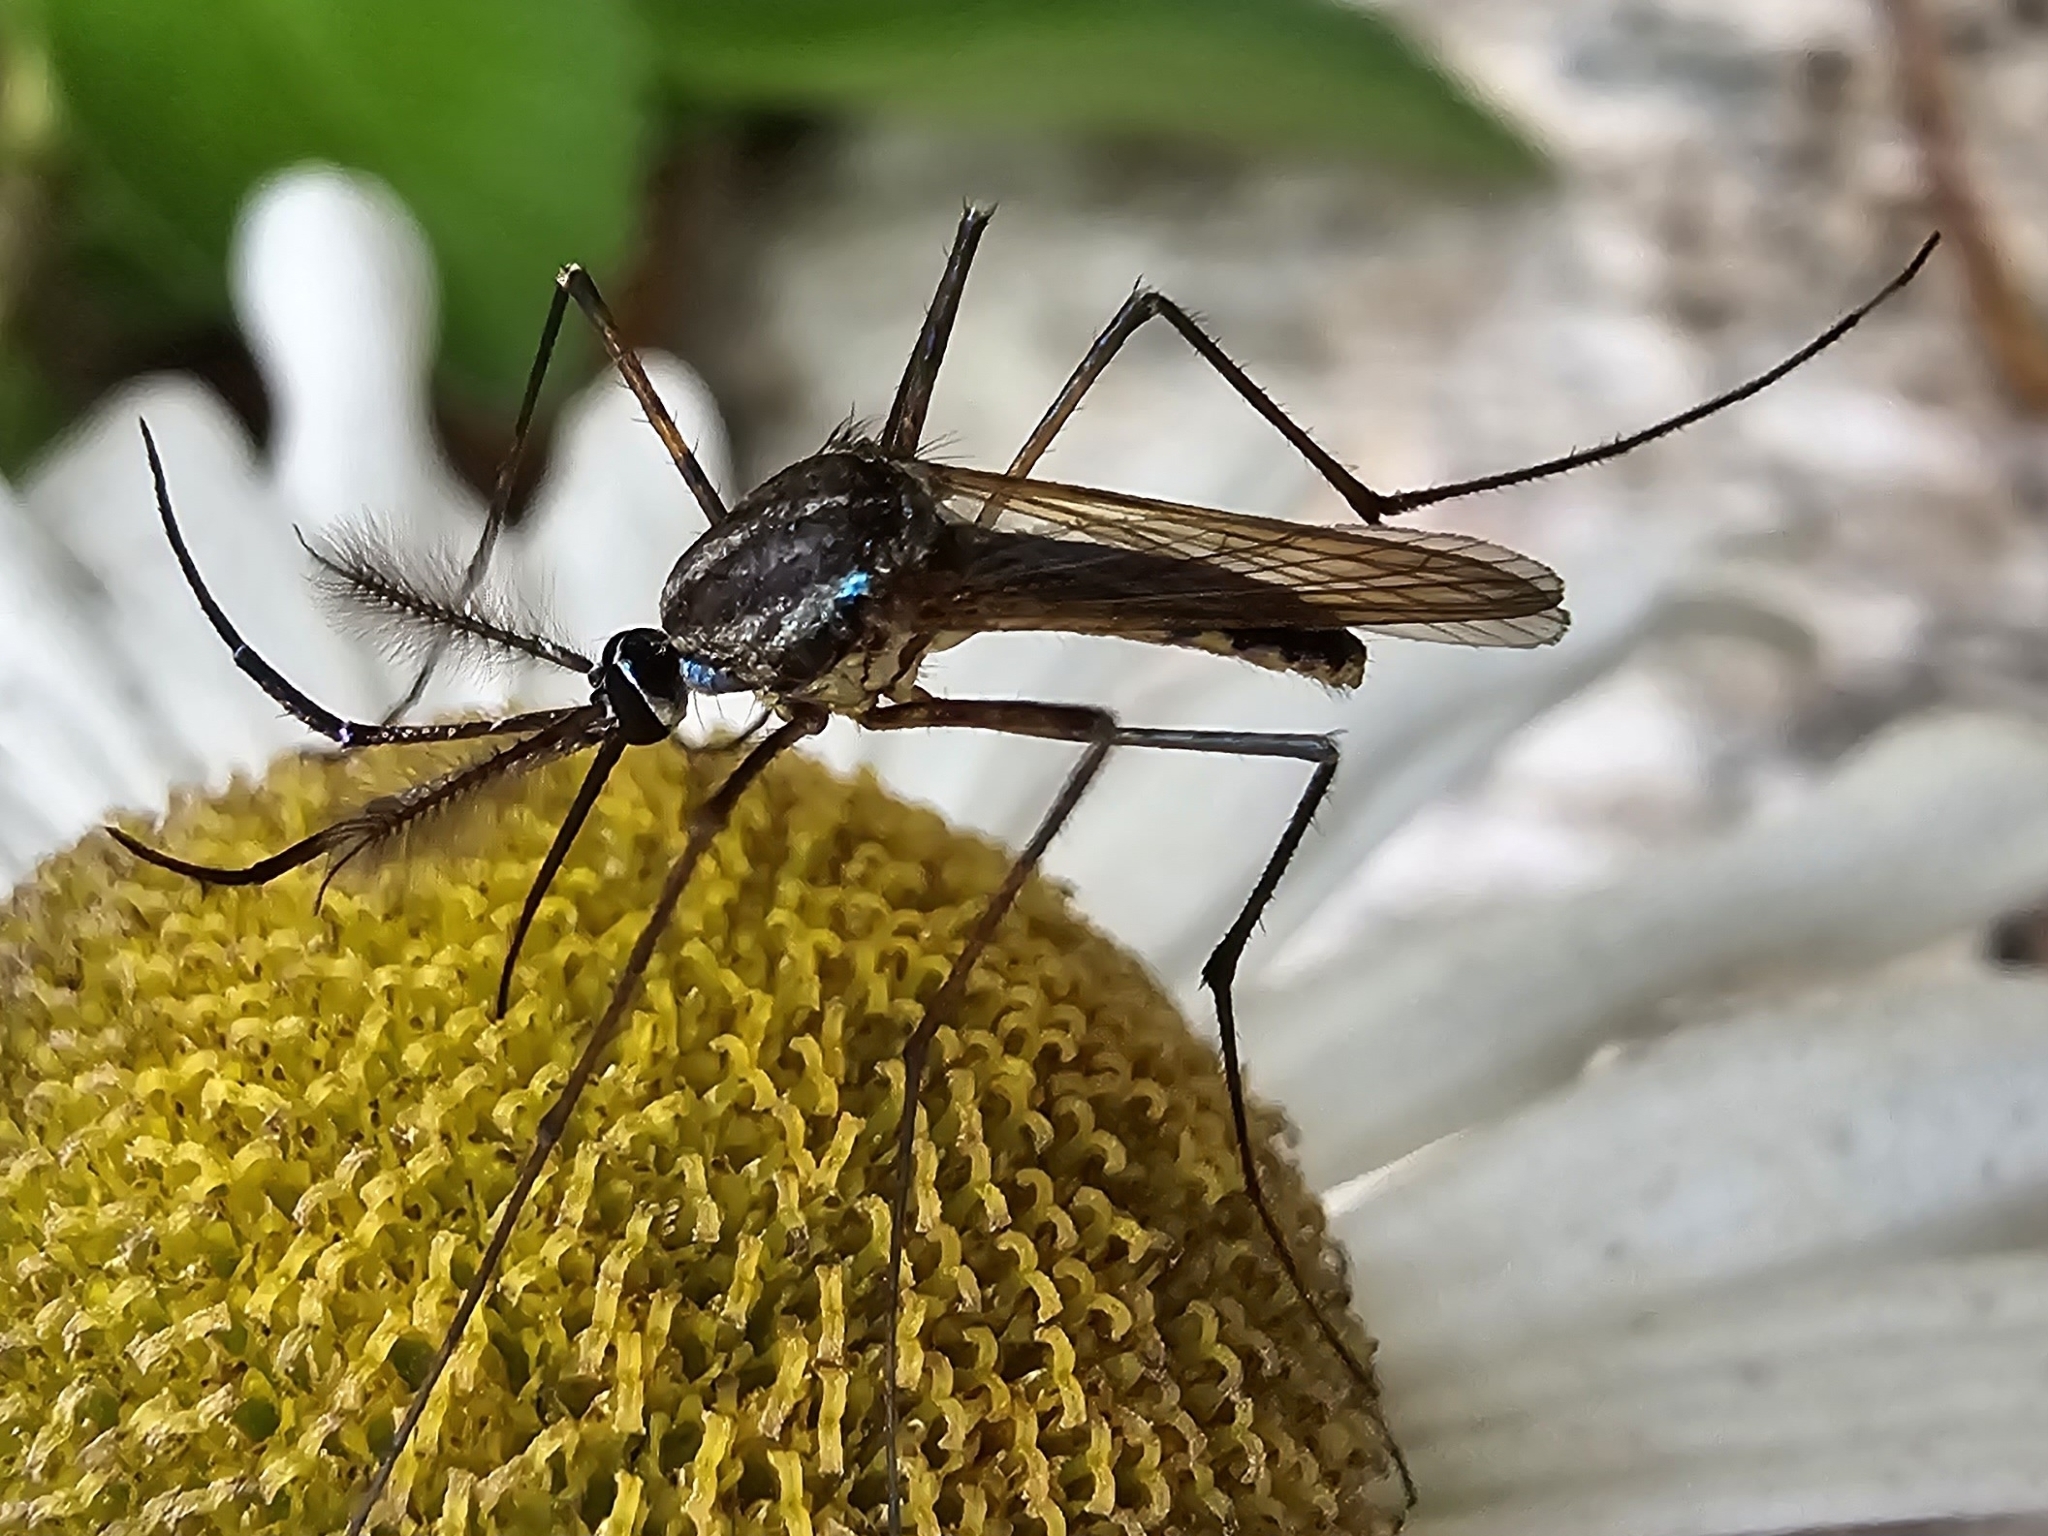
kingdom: Animalia
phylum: Arthropoda
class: Insecta
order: Diptera
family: Culicidae
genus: Toxorhynchites
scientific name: Toxorhynchites rutilus
